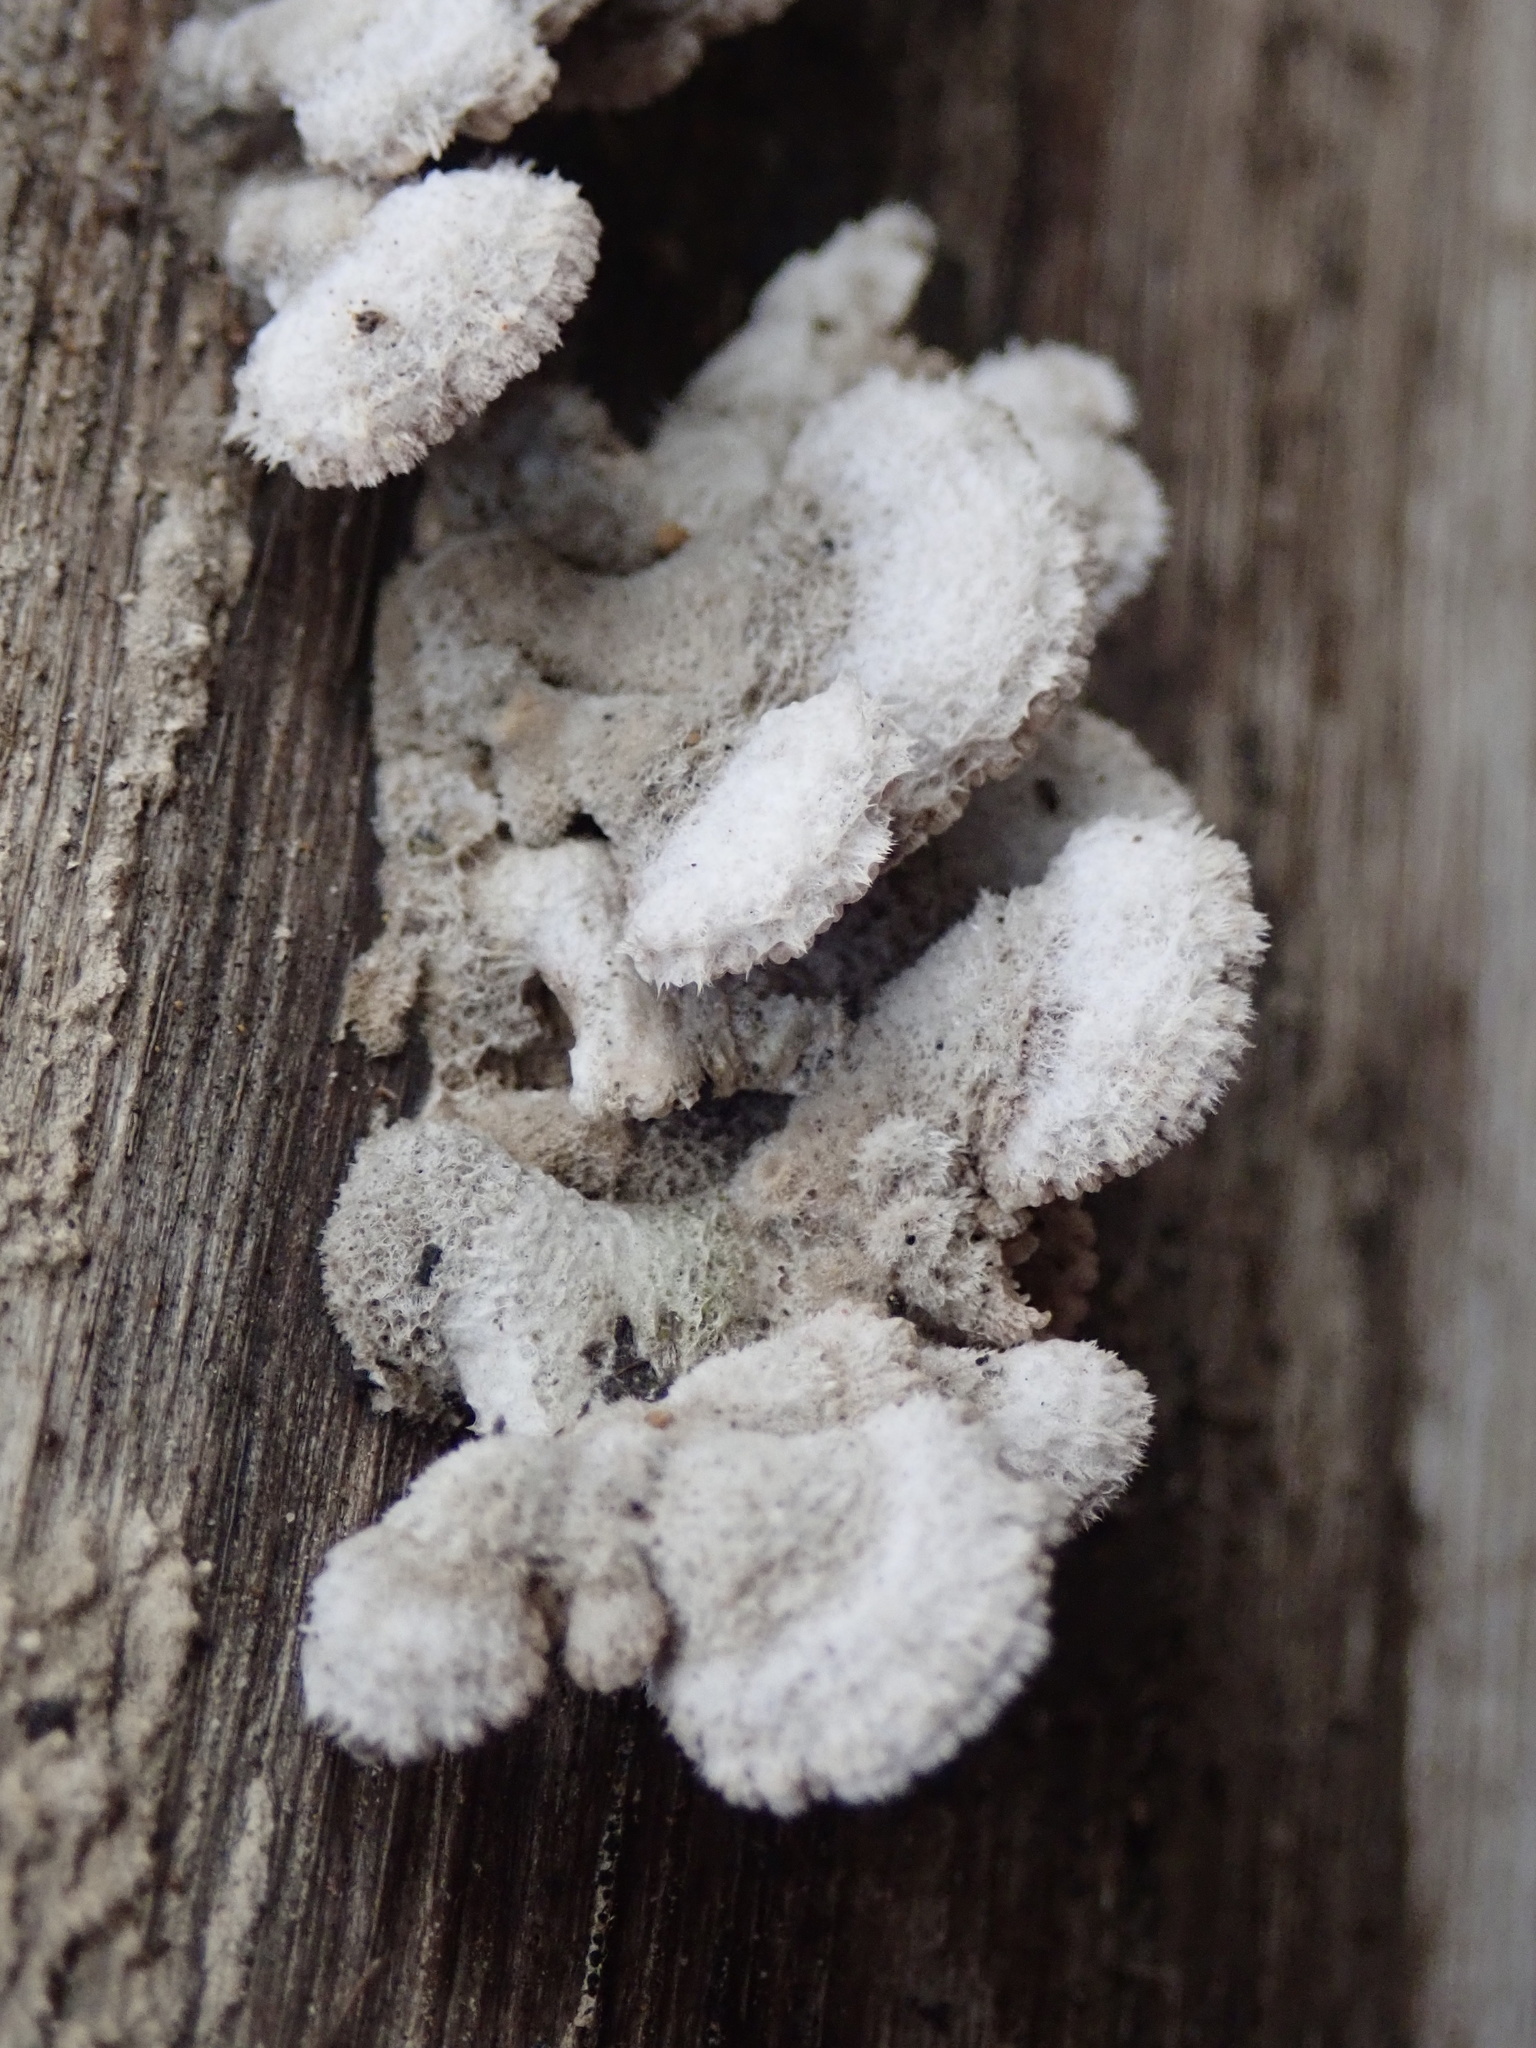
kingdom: Fungi
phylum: Basidiomycota
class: Agaricomycetes
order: Agaricales
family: Schizophyllaceae
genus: Schizophyllum
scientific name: Schizophyllum commune
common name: Common porecrust
